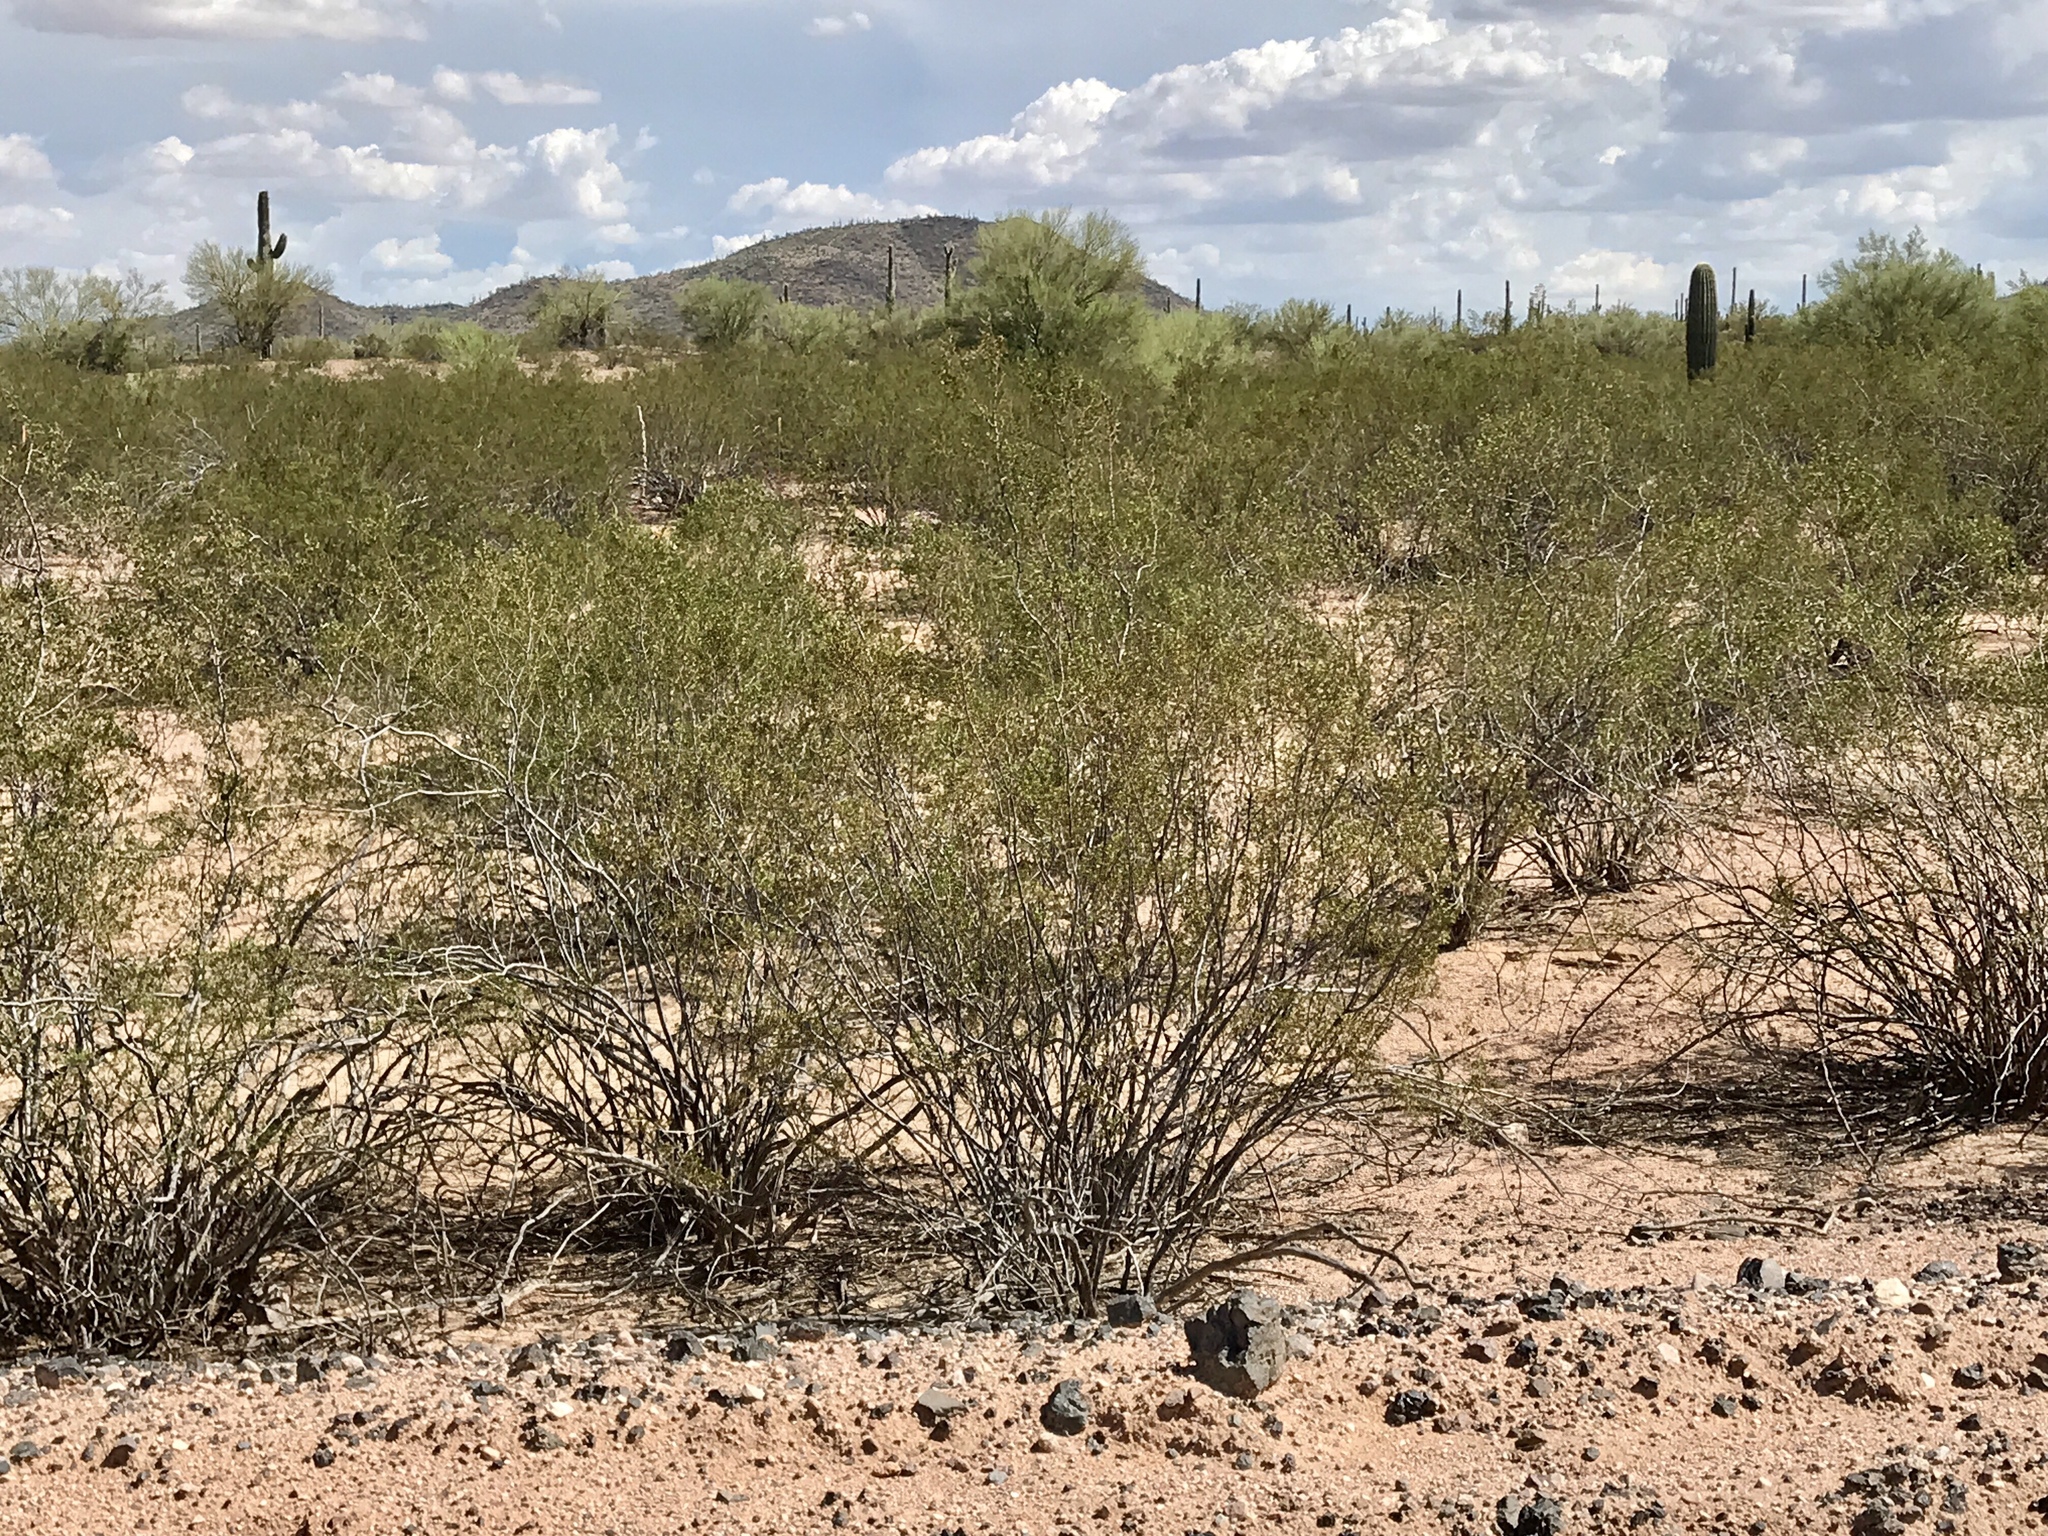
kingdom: Plantae
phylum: Tracheophyta
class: Magnoliopsida
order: Zygophyllales
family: Zygophyllaceae
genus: Larrea
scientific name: Larrea tridentata
